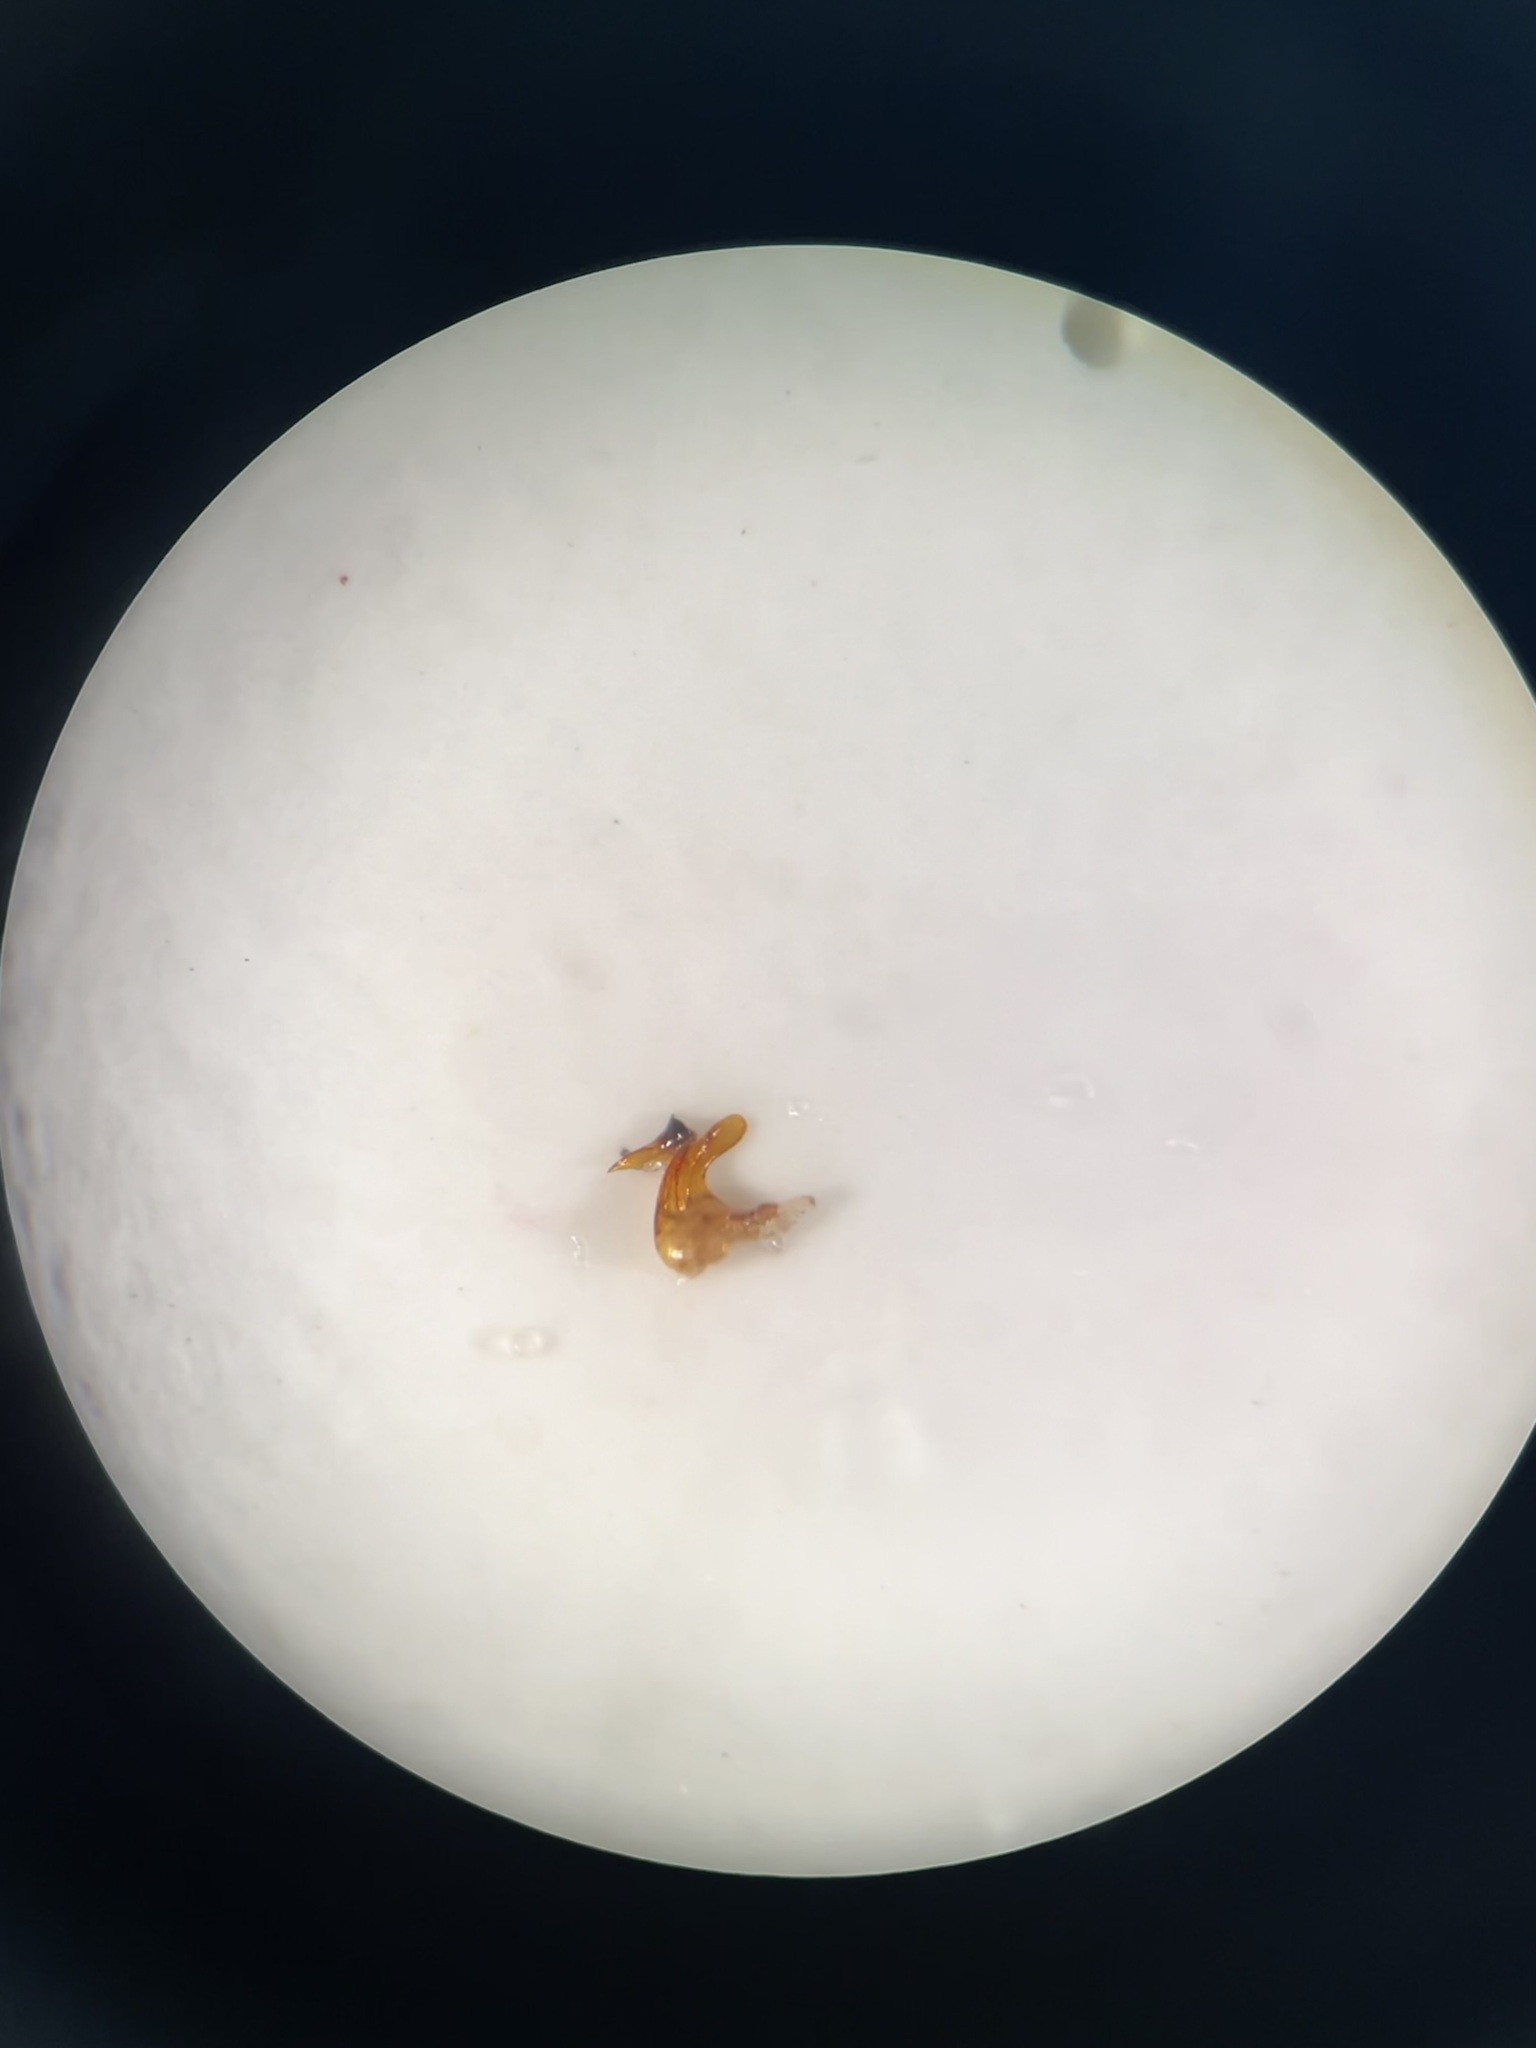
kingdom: Animalia
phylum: Arthropoda
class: Insecta
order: Hemiptera
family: Cicadellidae
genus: Anaceratagallia
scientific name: Anaceratagallia glabra
